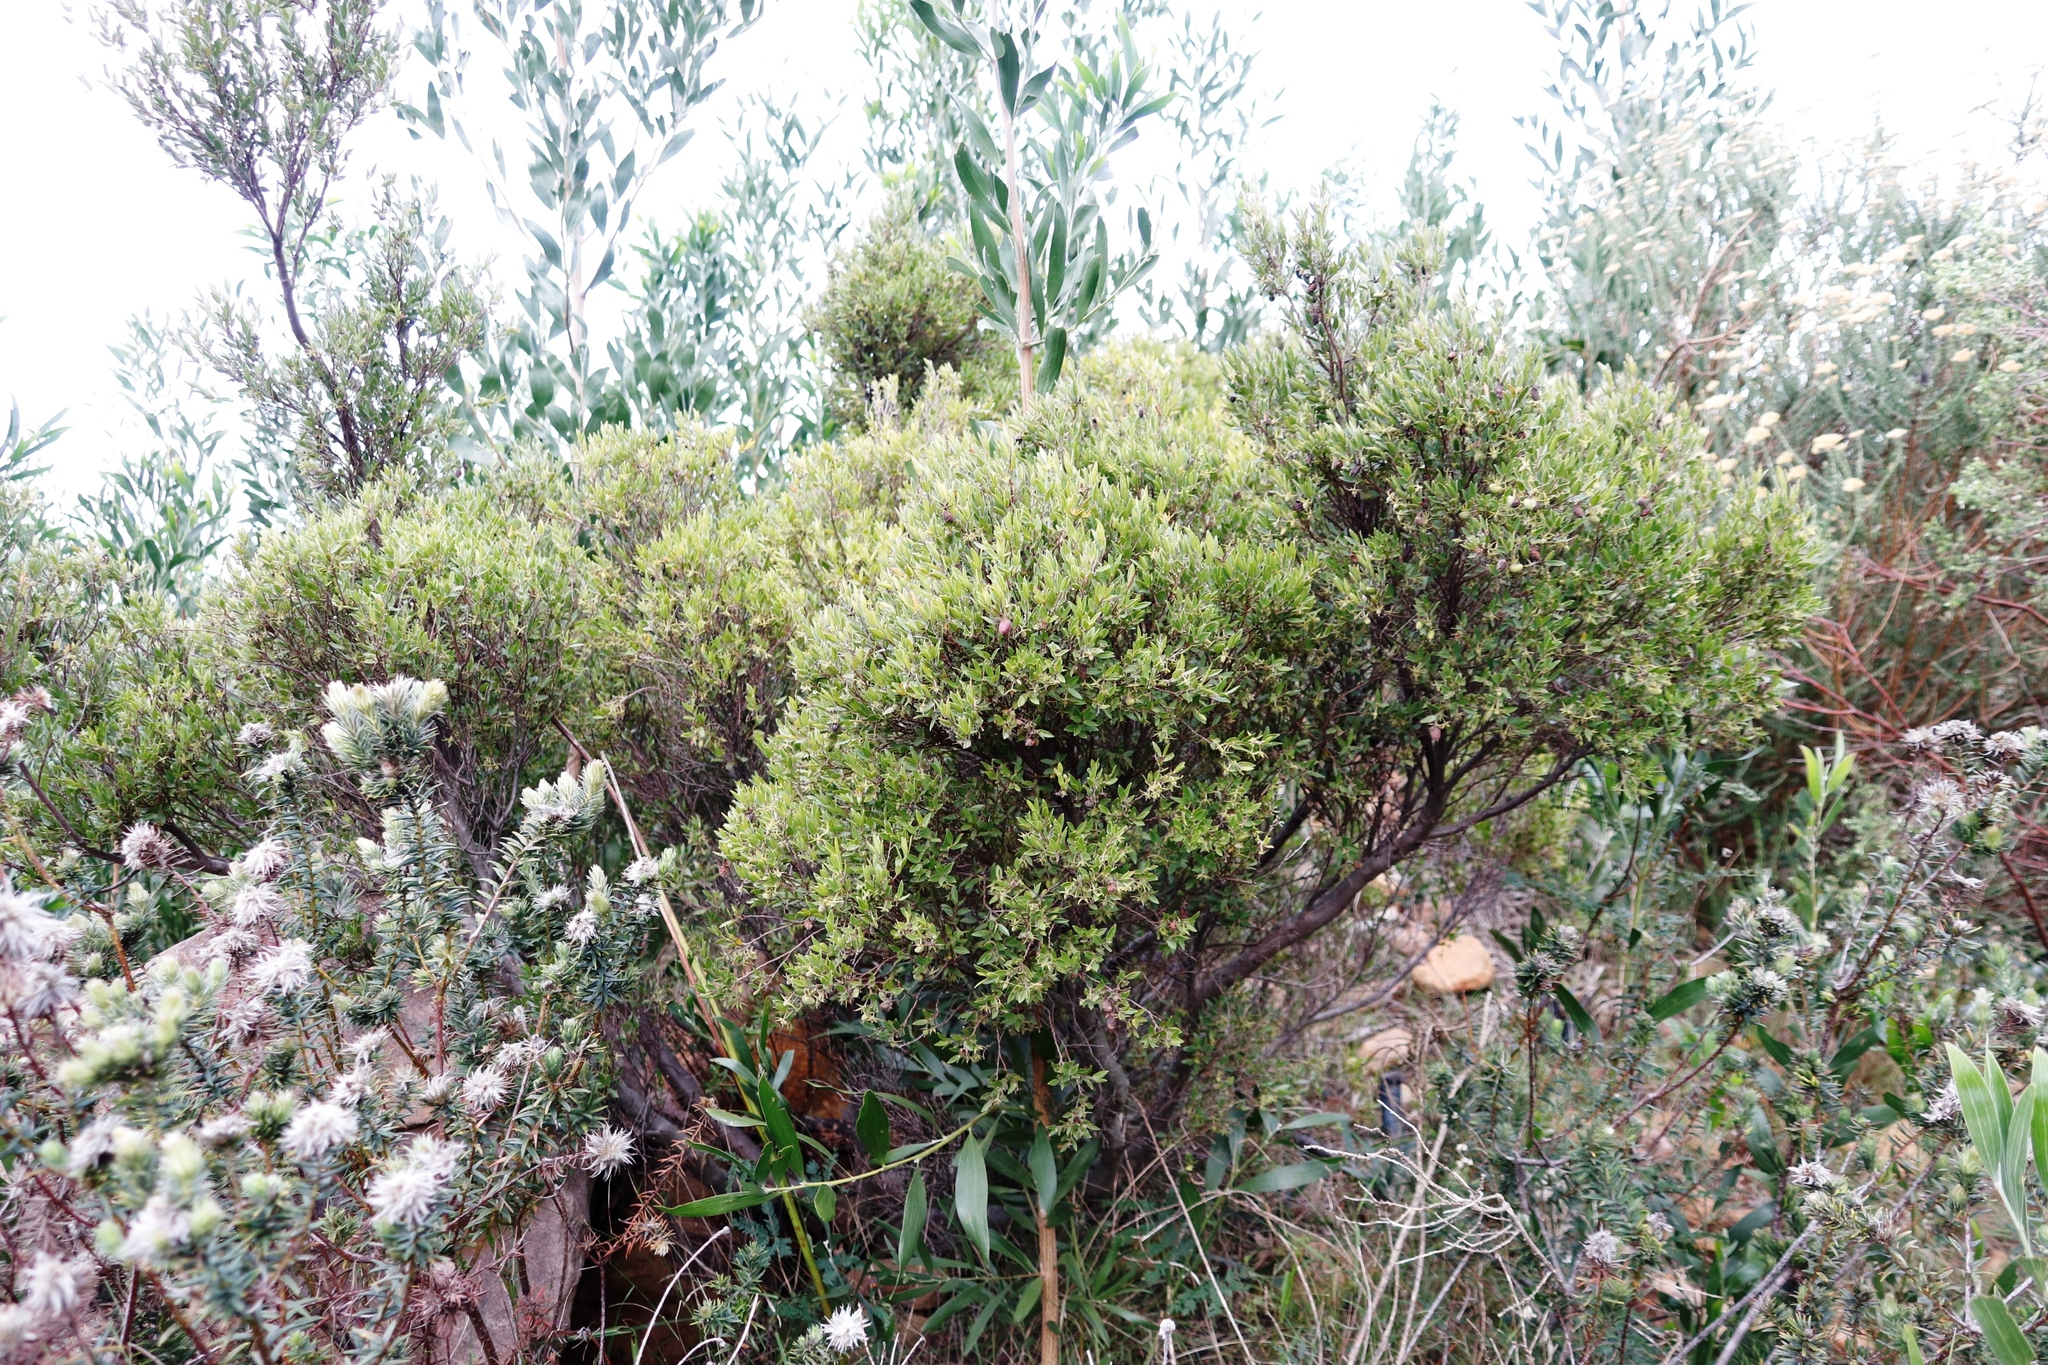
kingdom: Plantae
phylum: Tracheophyta
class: Magnoliopsida
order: Ericales
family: Ebenaceae
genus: Diospyros
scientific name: Diospyros glabra
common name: Fynbos star apple
